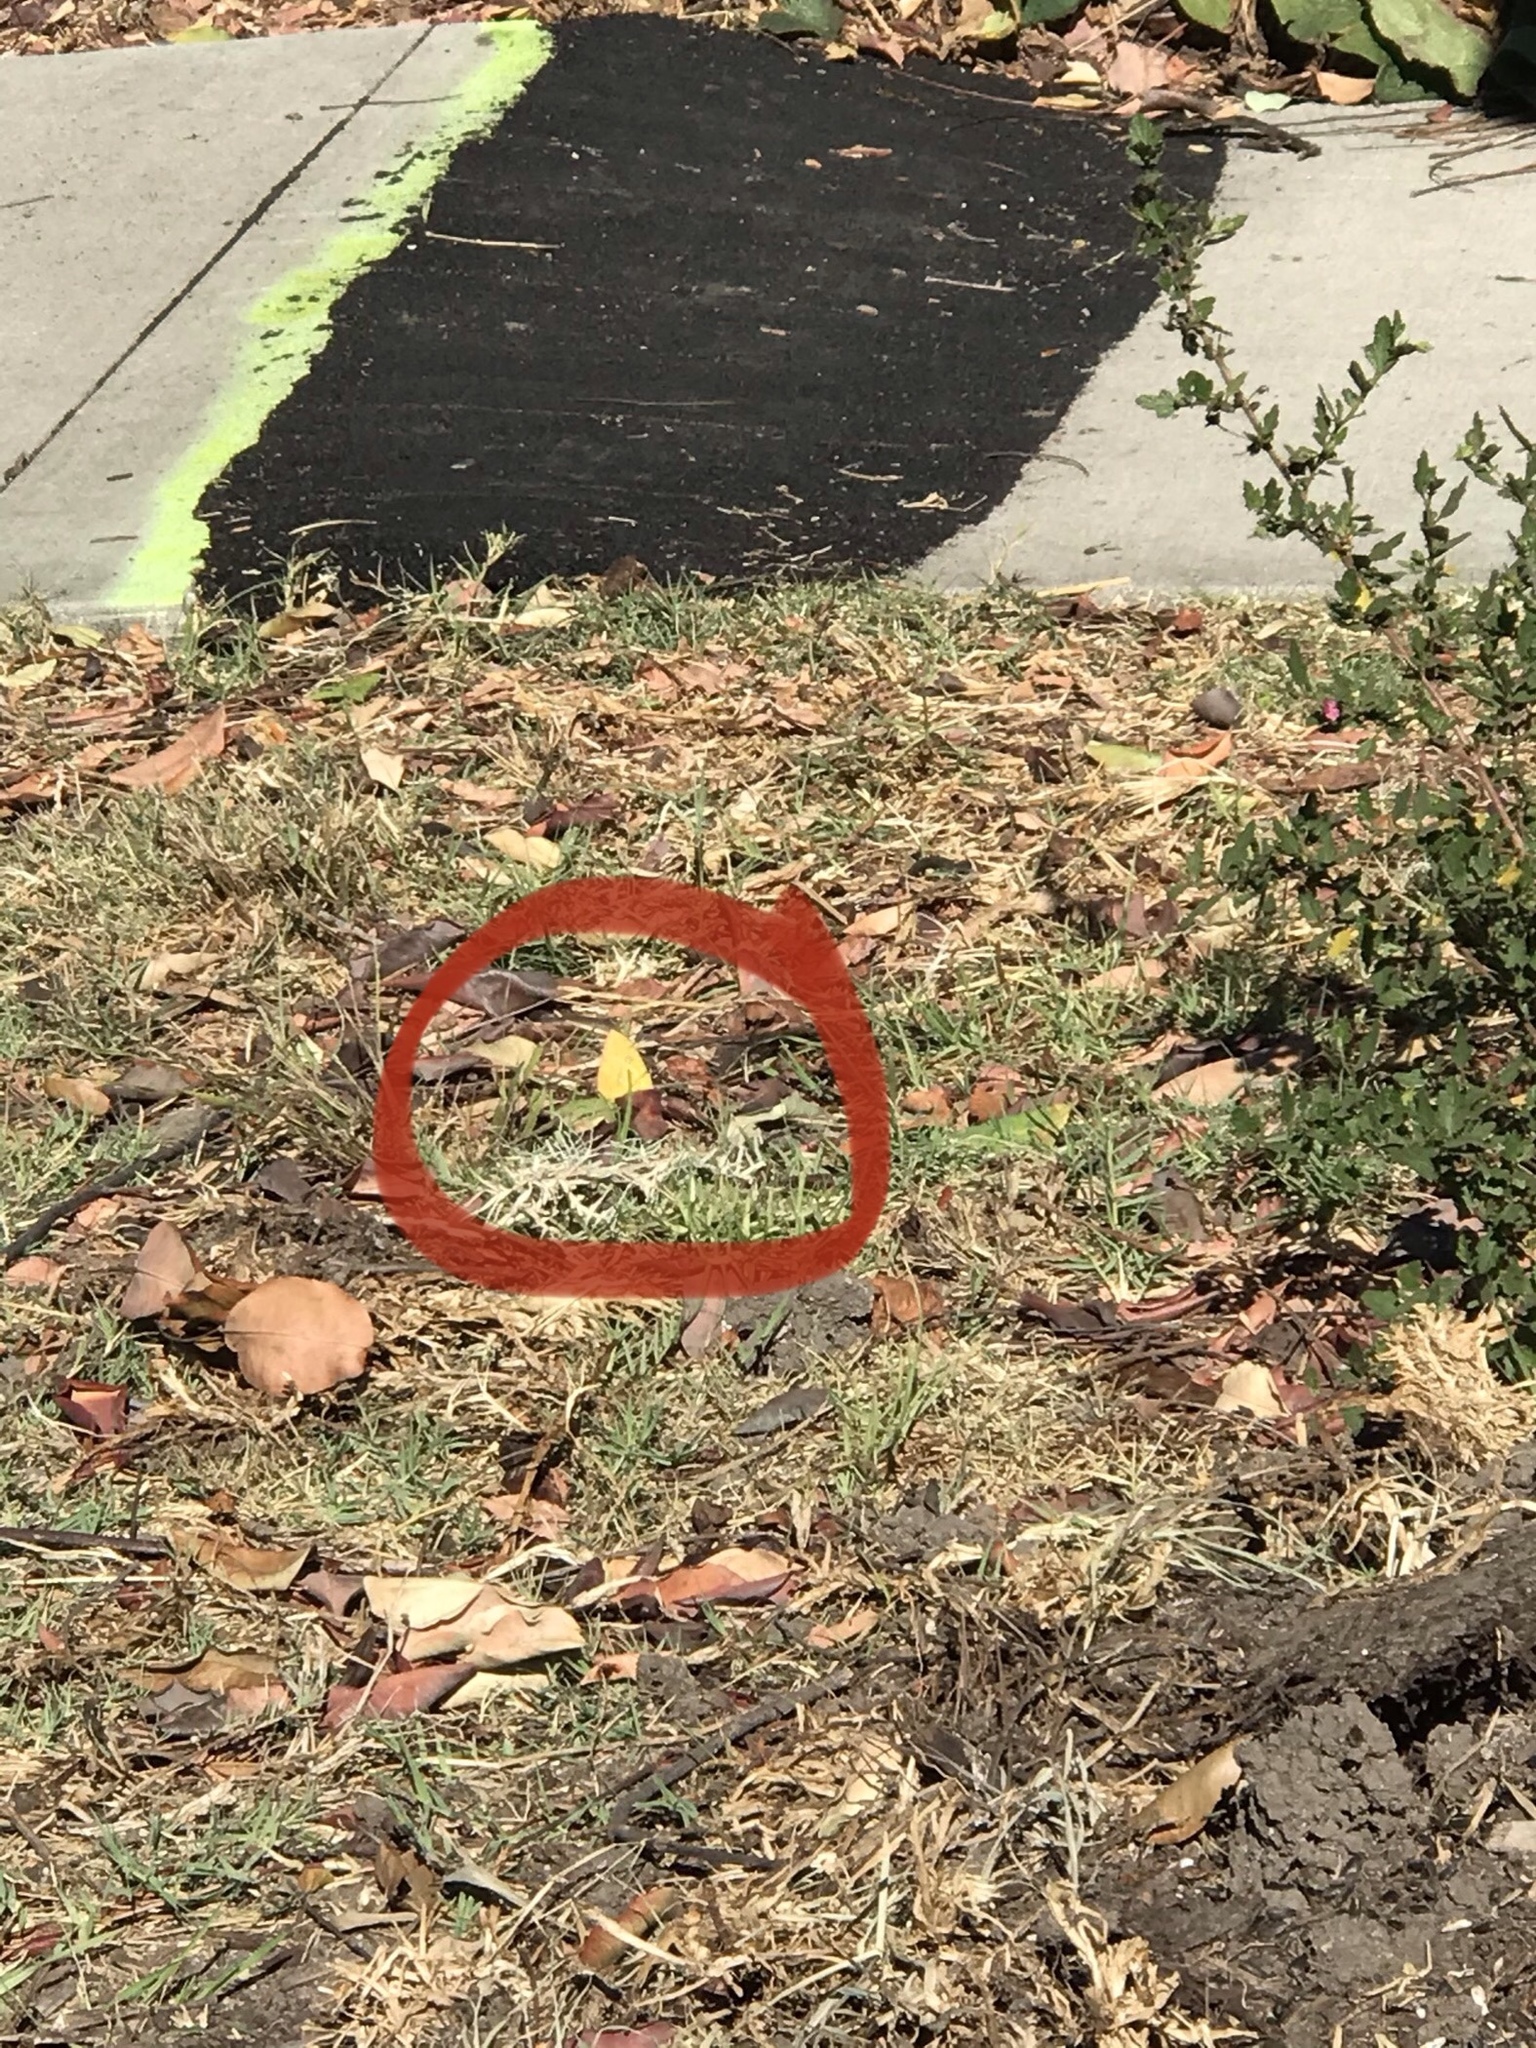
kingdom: Animalia
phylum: Arthropoda
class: Insecta
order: Lepidoptera
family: Pieridae
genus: Phoebis
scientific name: Phoebis marcellina
